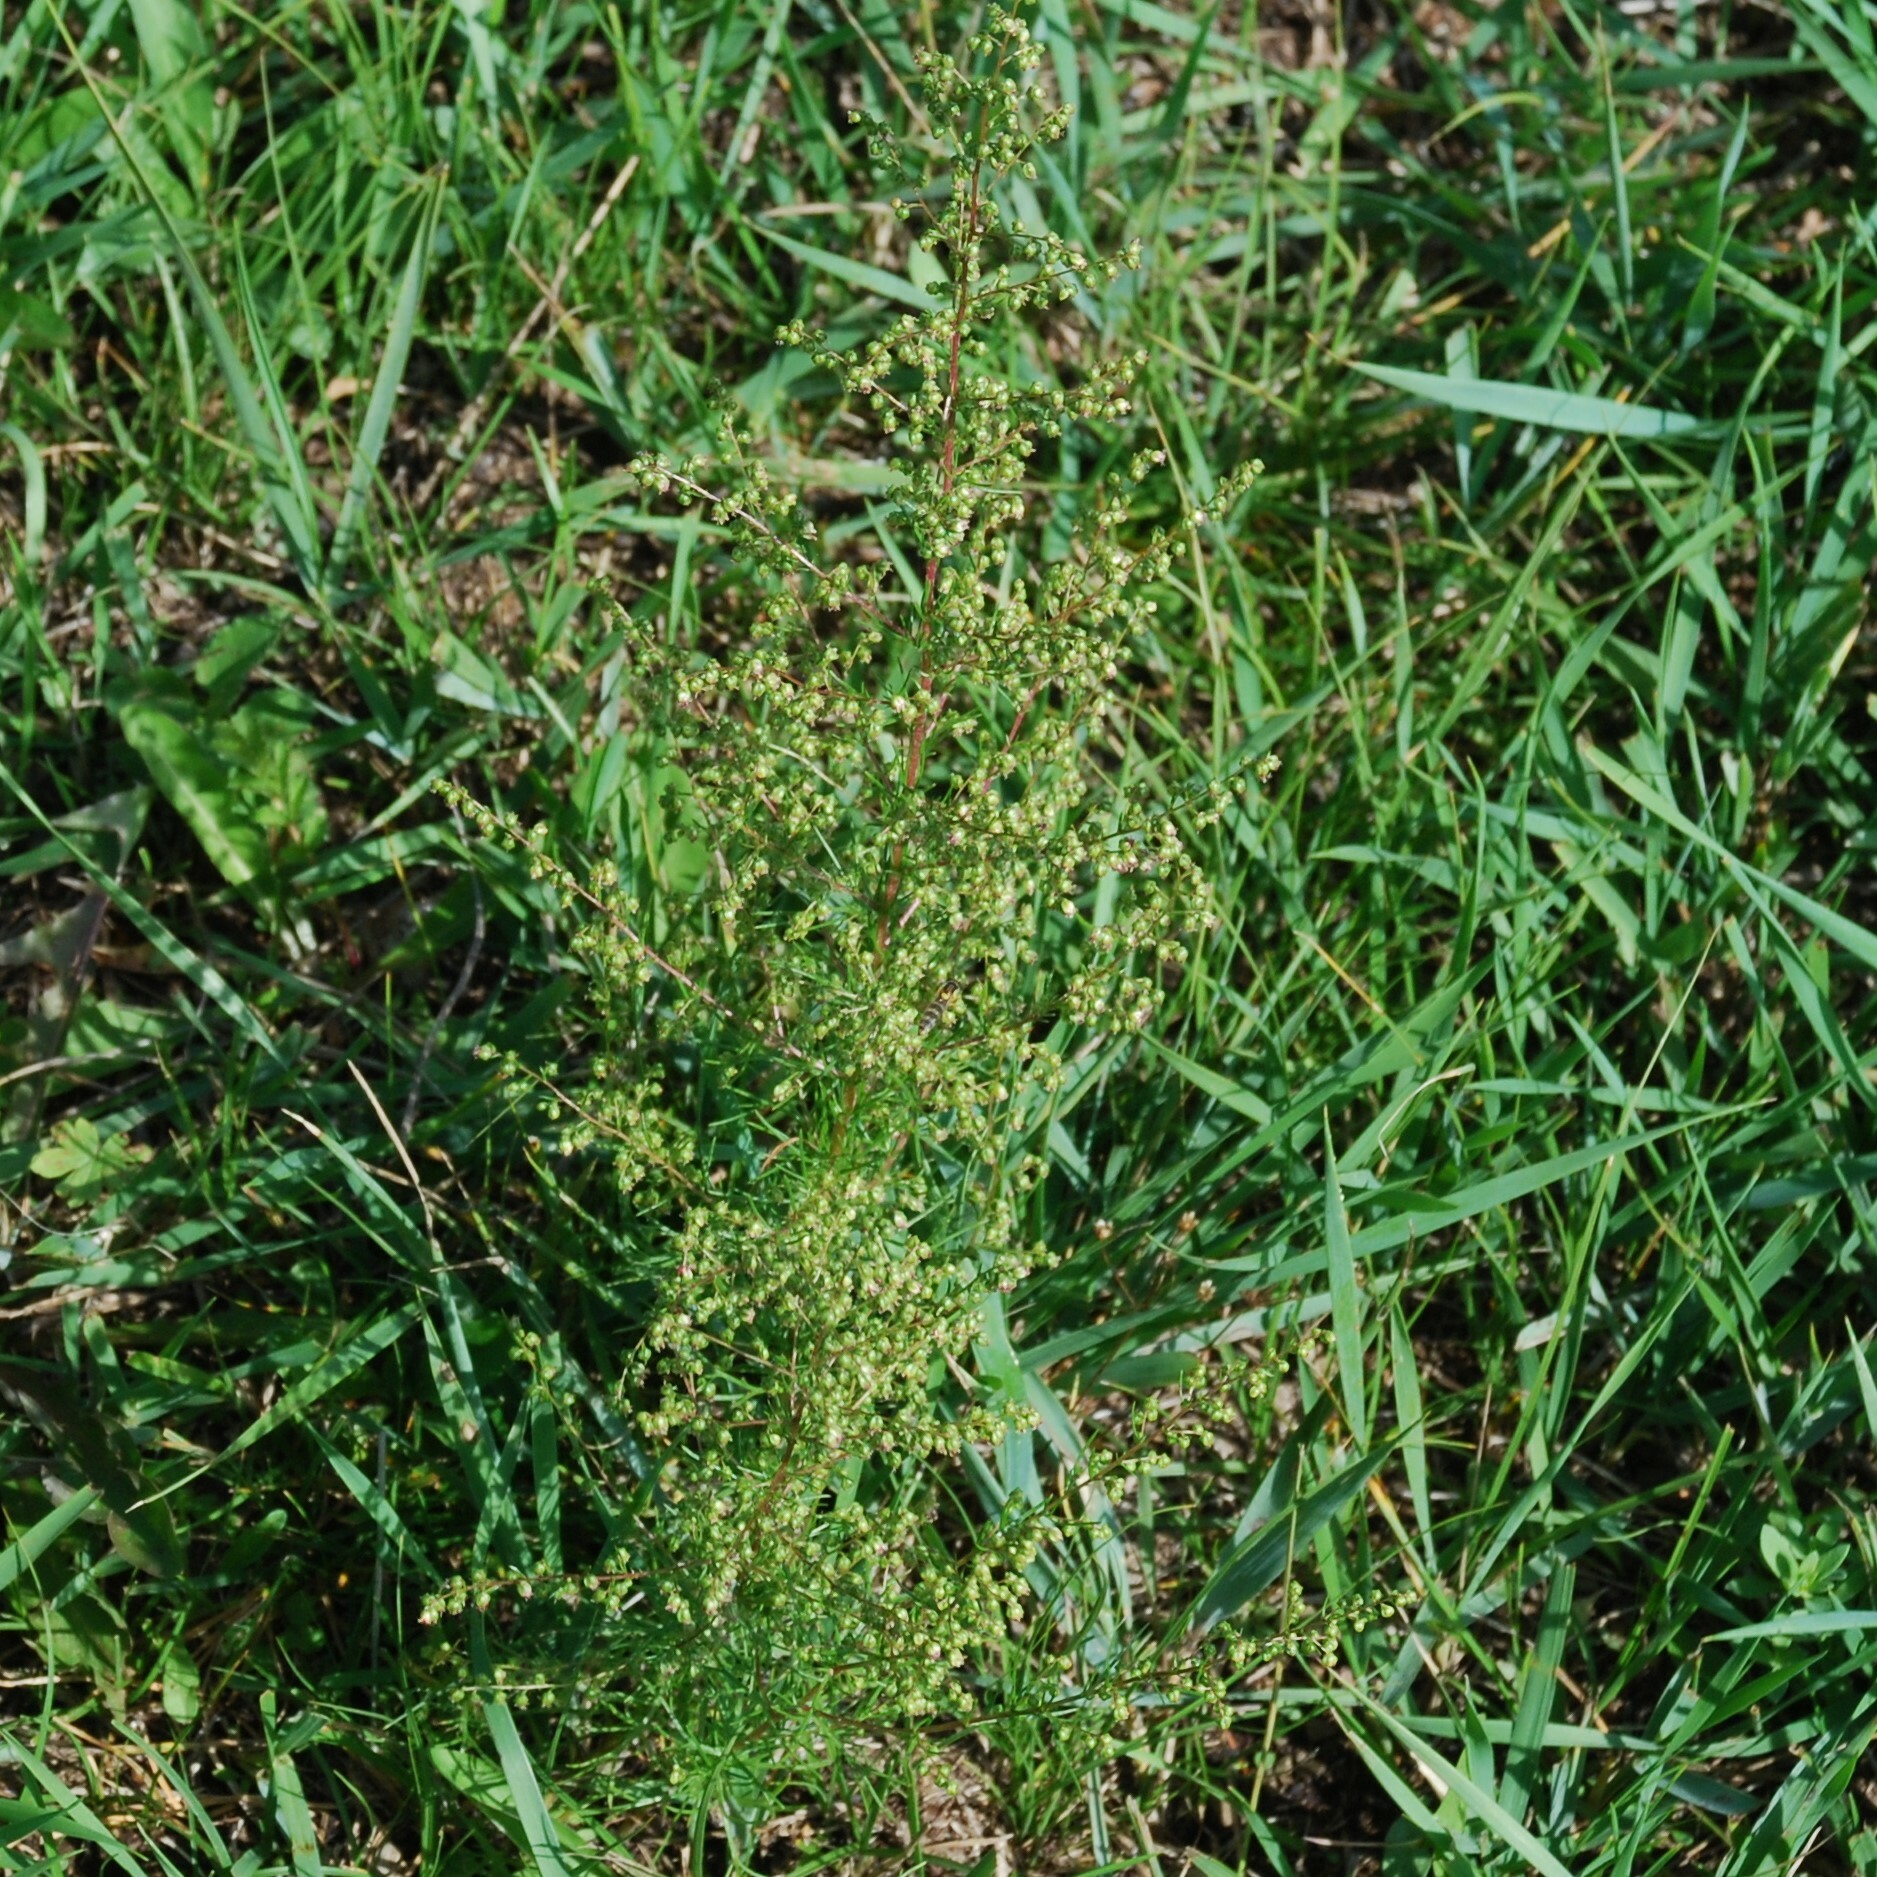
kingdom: Plantae
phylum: Tracheophyta
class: Magnoliopsida
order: Asterales
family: Asteraceae
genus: Artemisia
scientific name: Artemisia scoparia
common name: Redstem wormwood
